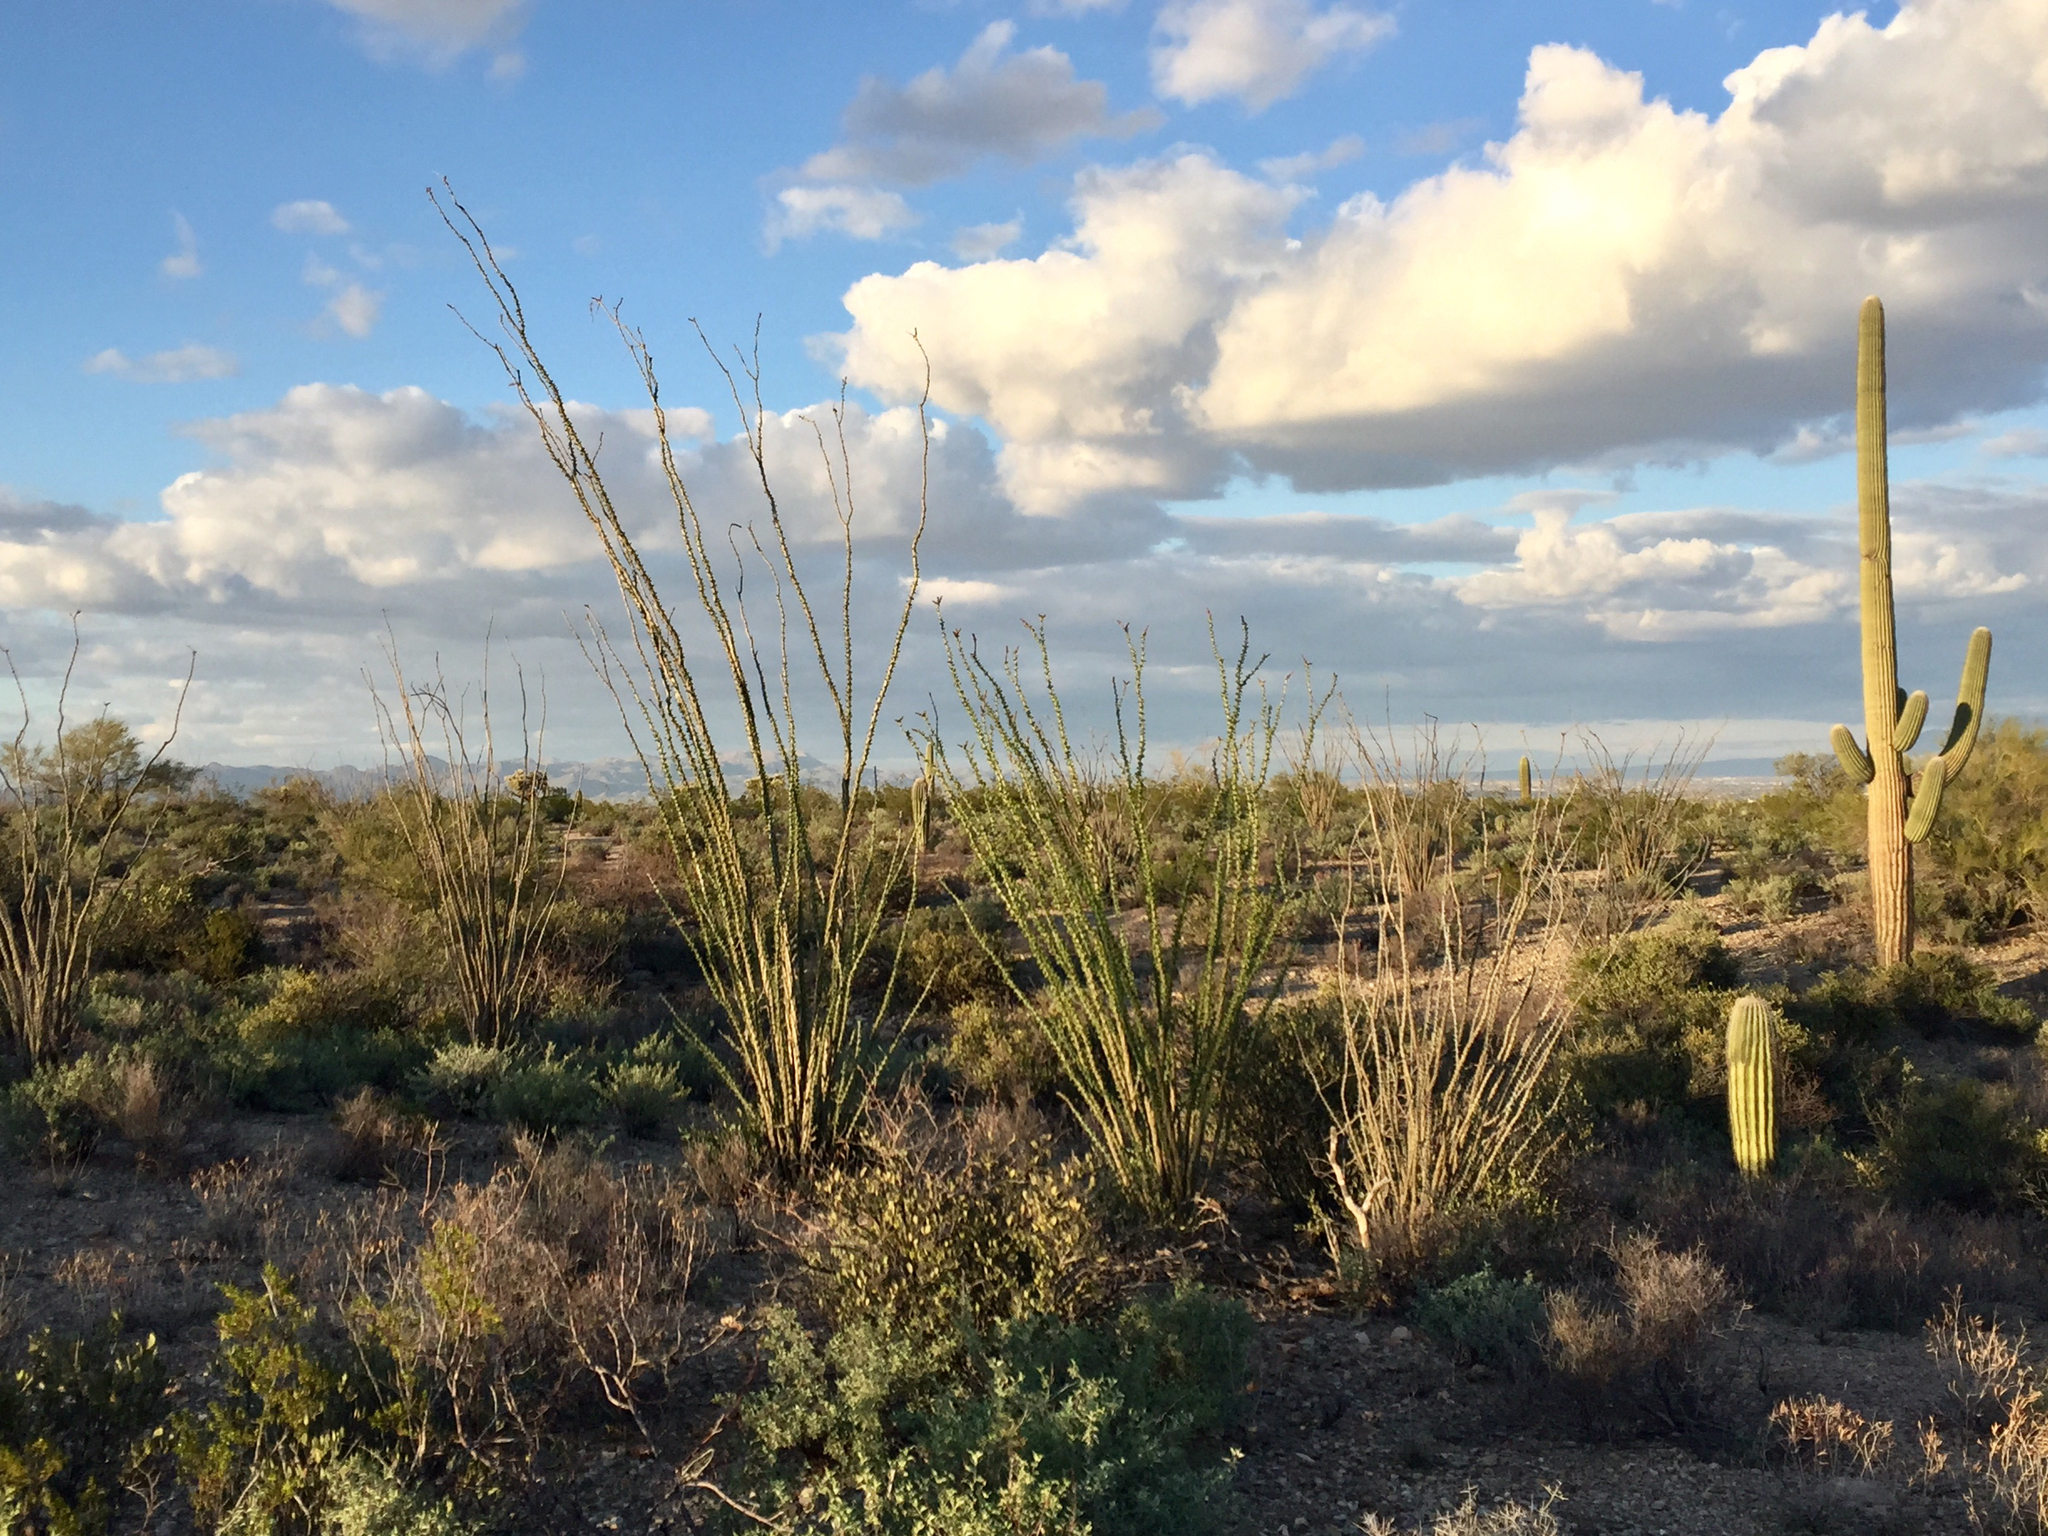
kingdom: Plantae
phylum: Tracheophyta
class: Magnoliopsida
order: Ericales
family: Fouquieriaceae
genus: Fouquieria
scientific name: Fouquieria splendens
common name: Vine-cactus
